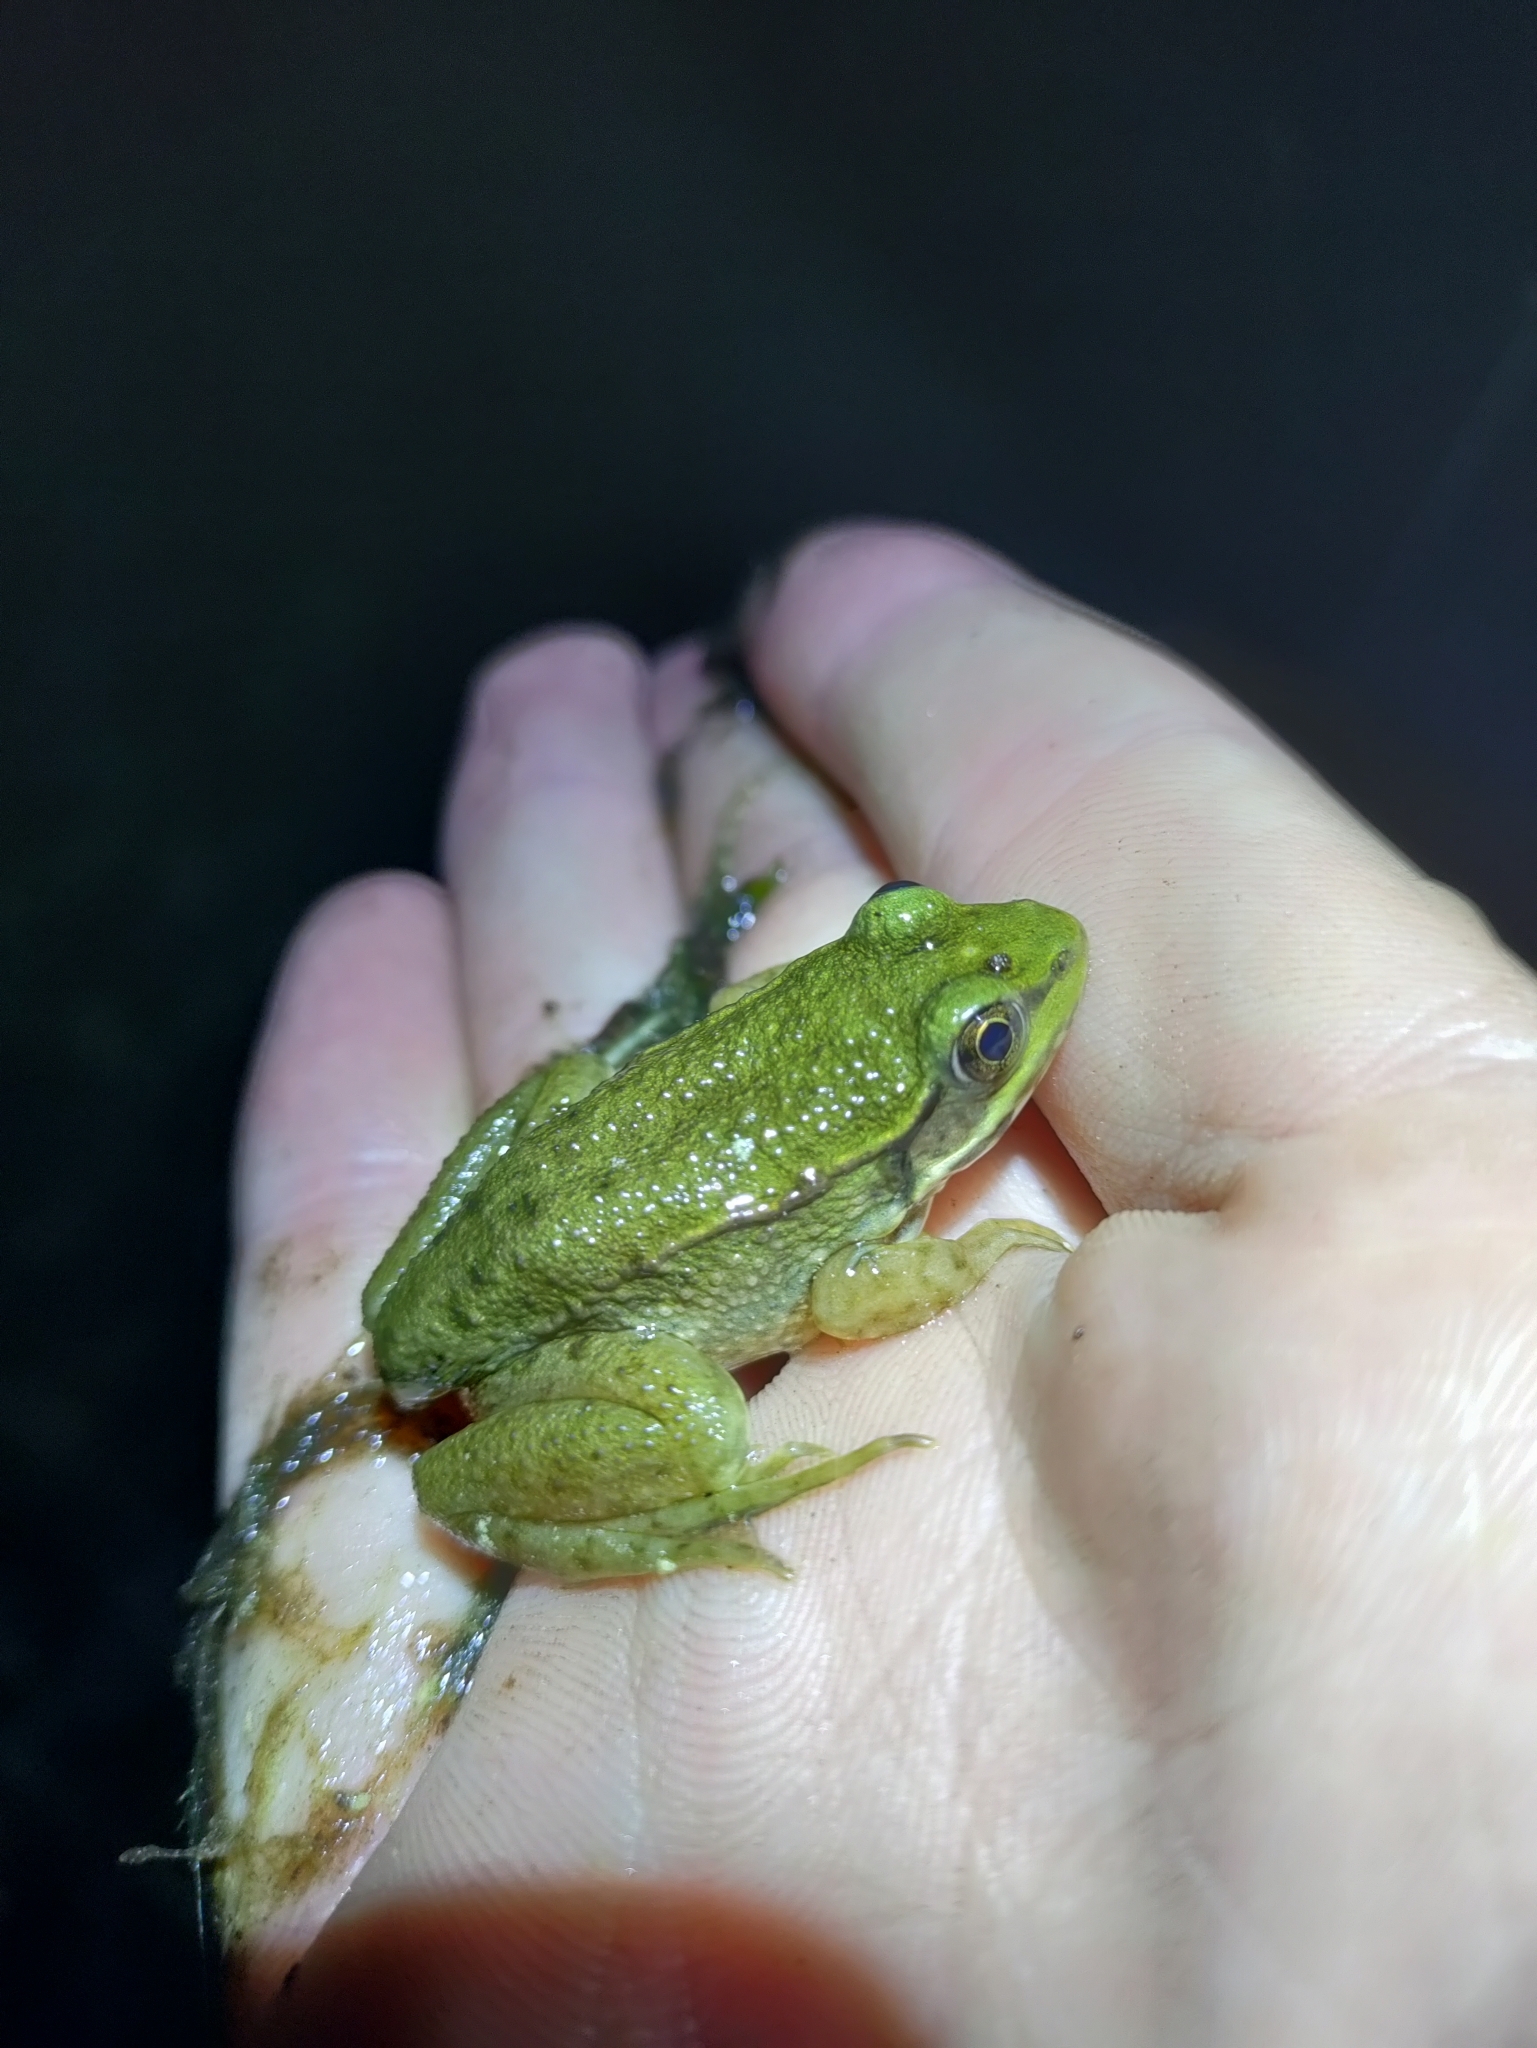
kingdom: Animalia
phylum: Chordata
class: Amphibia
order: Anura
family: Ranidae
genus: Lithobates
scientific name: Lithobates clamitans
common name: Green frog
